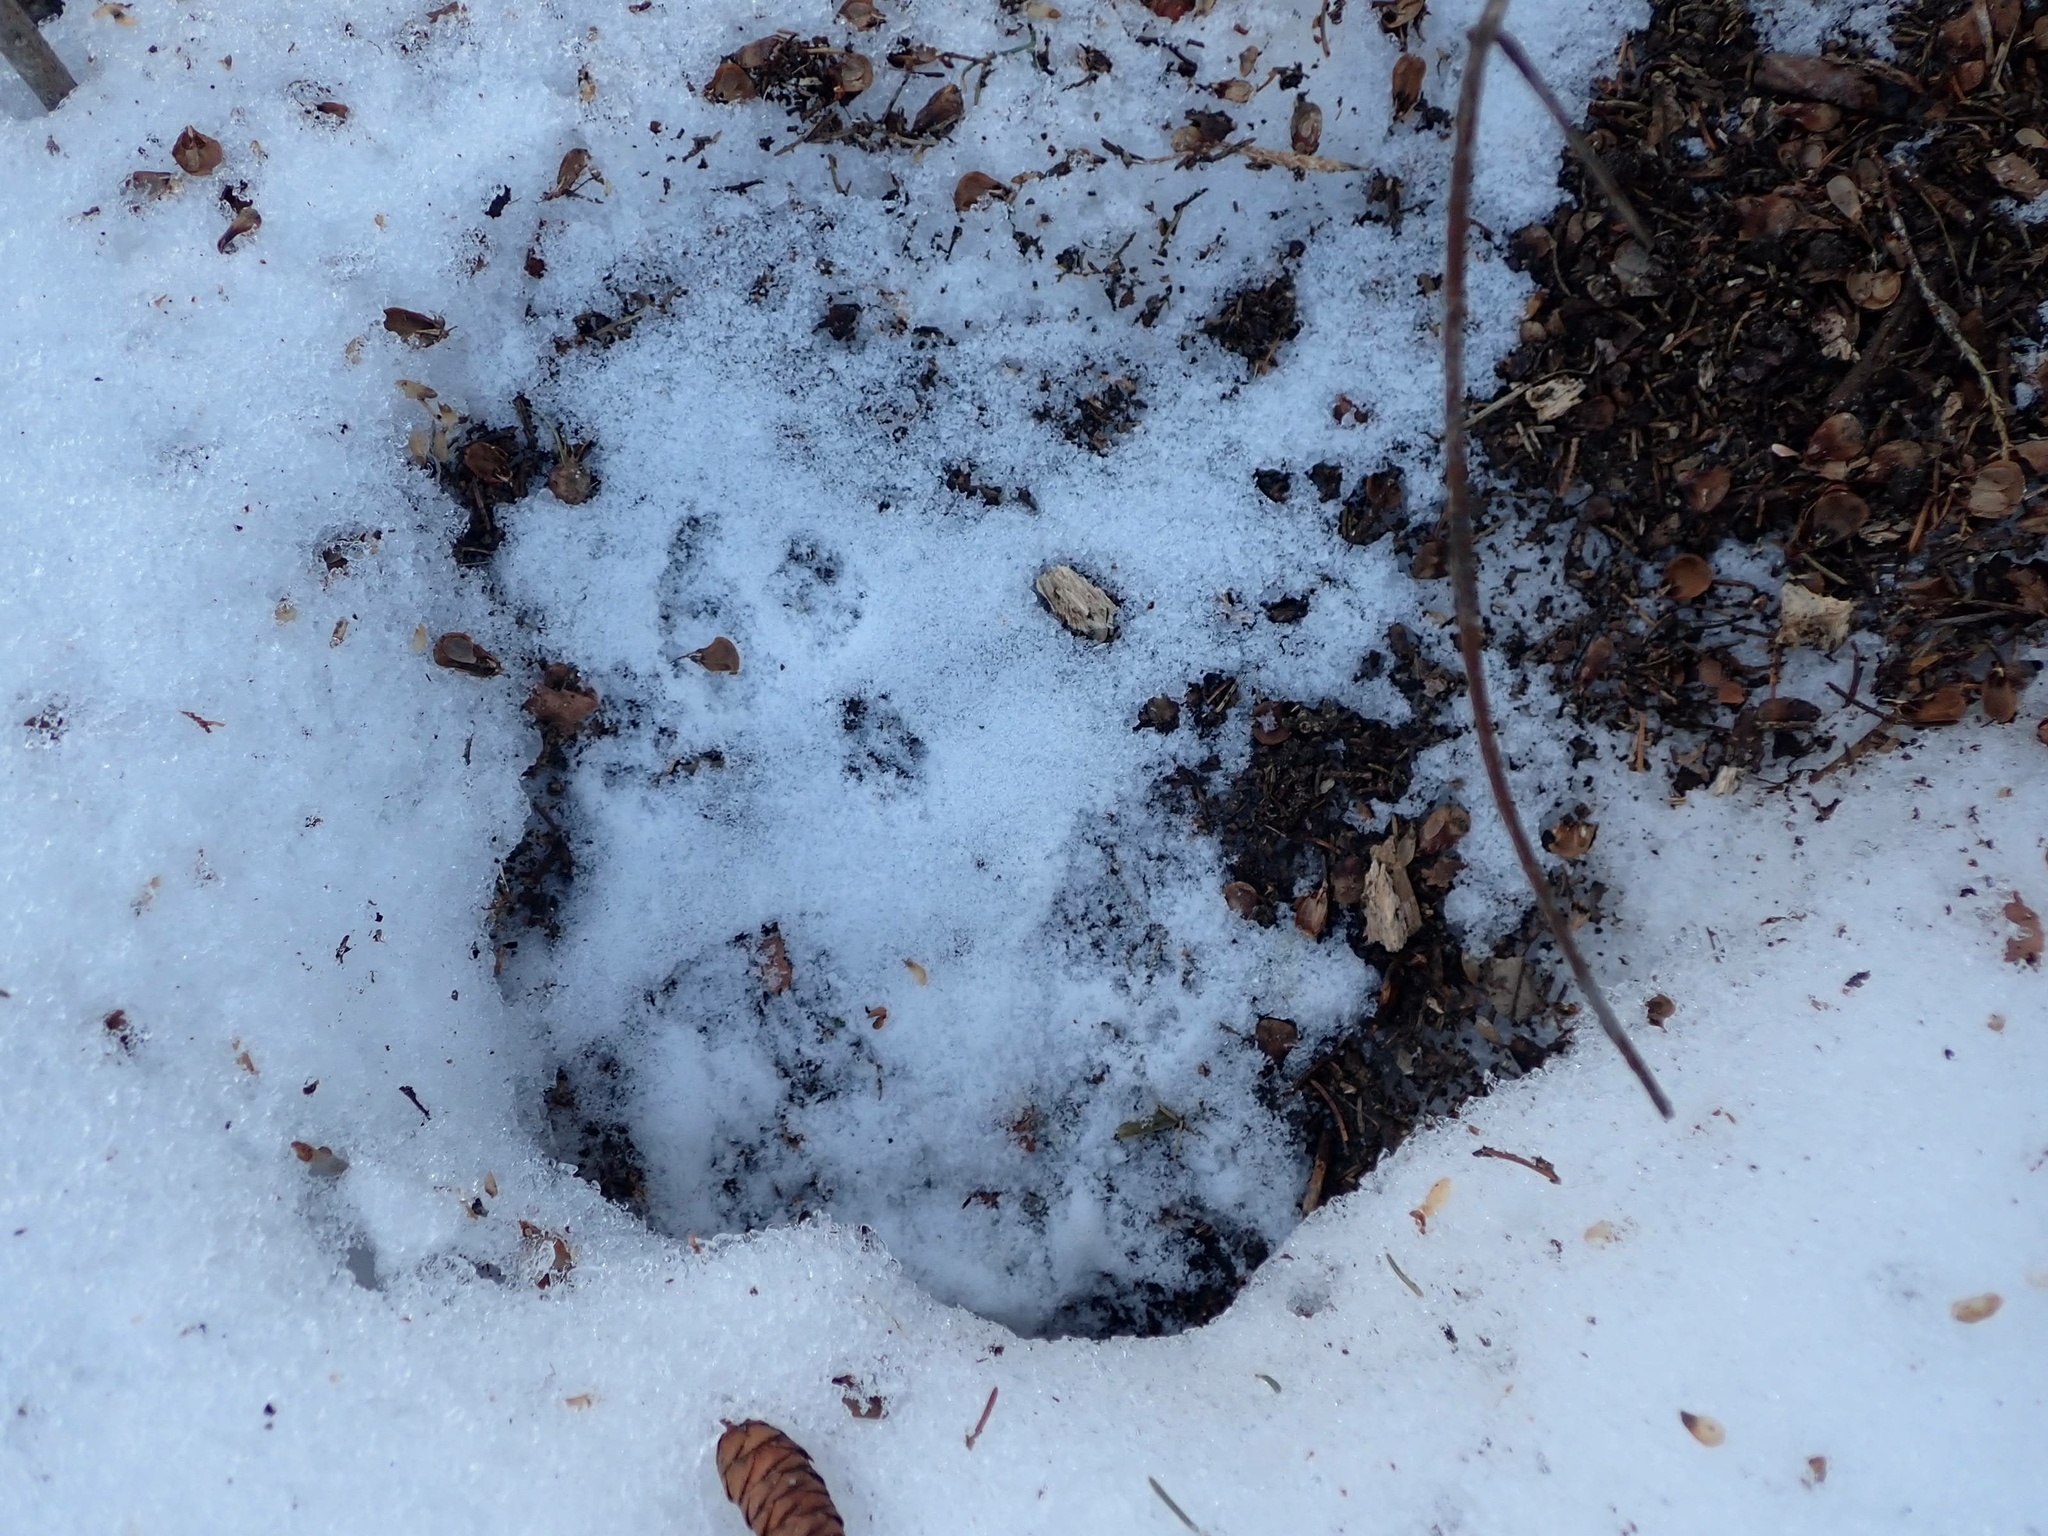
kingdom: Animalia
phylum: Chordata
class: Mammalia
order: Rodentia
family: Sciuridae
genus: Tamiasciurus
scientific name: Tamiasciurus hudsonicus
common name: Red squirrel
